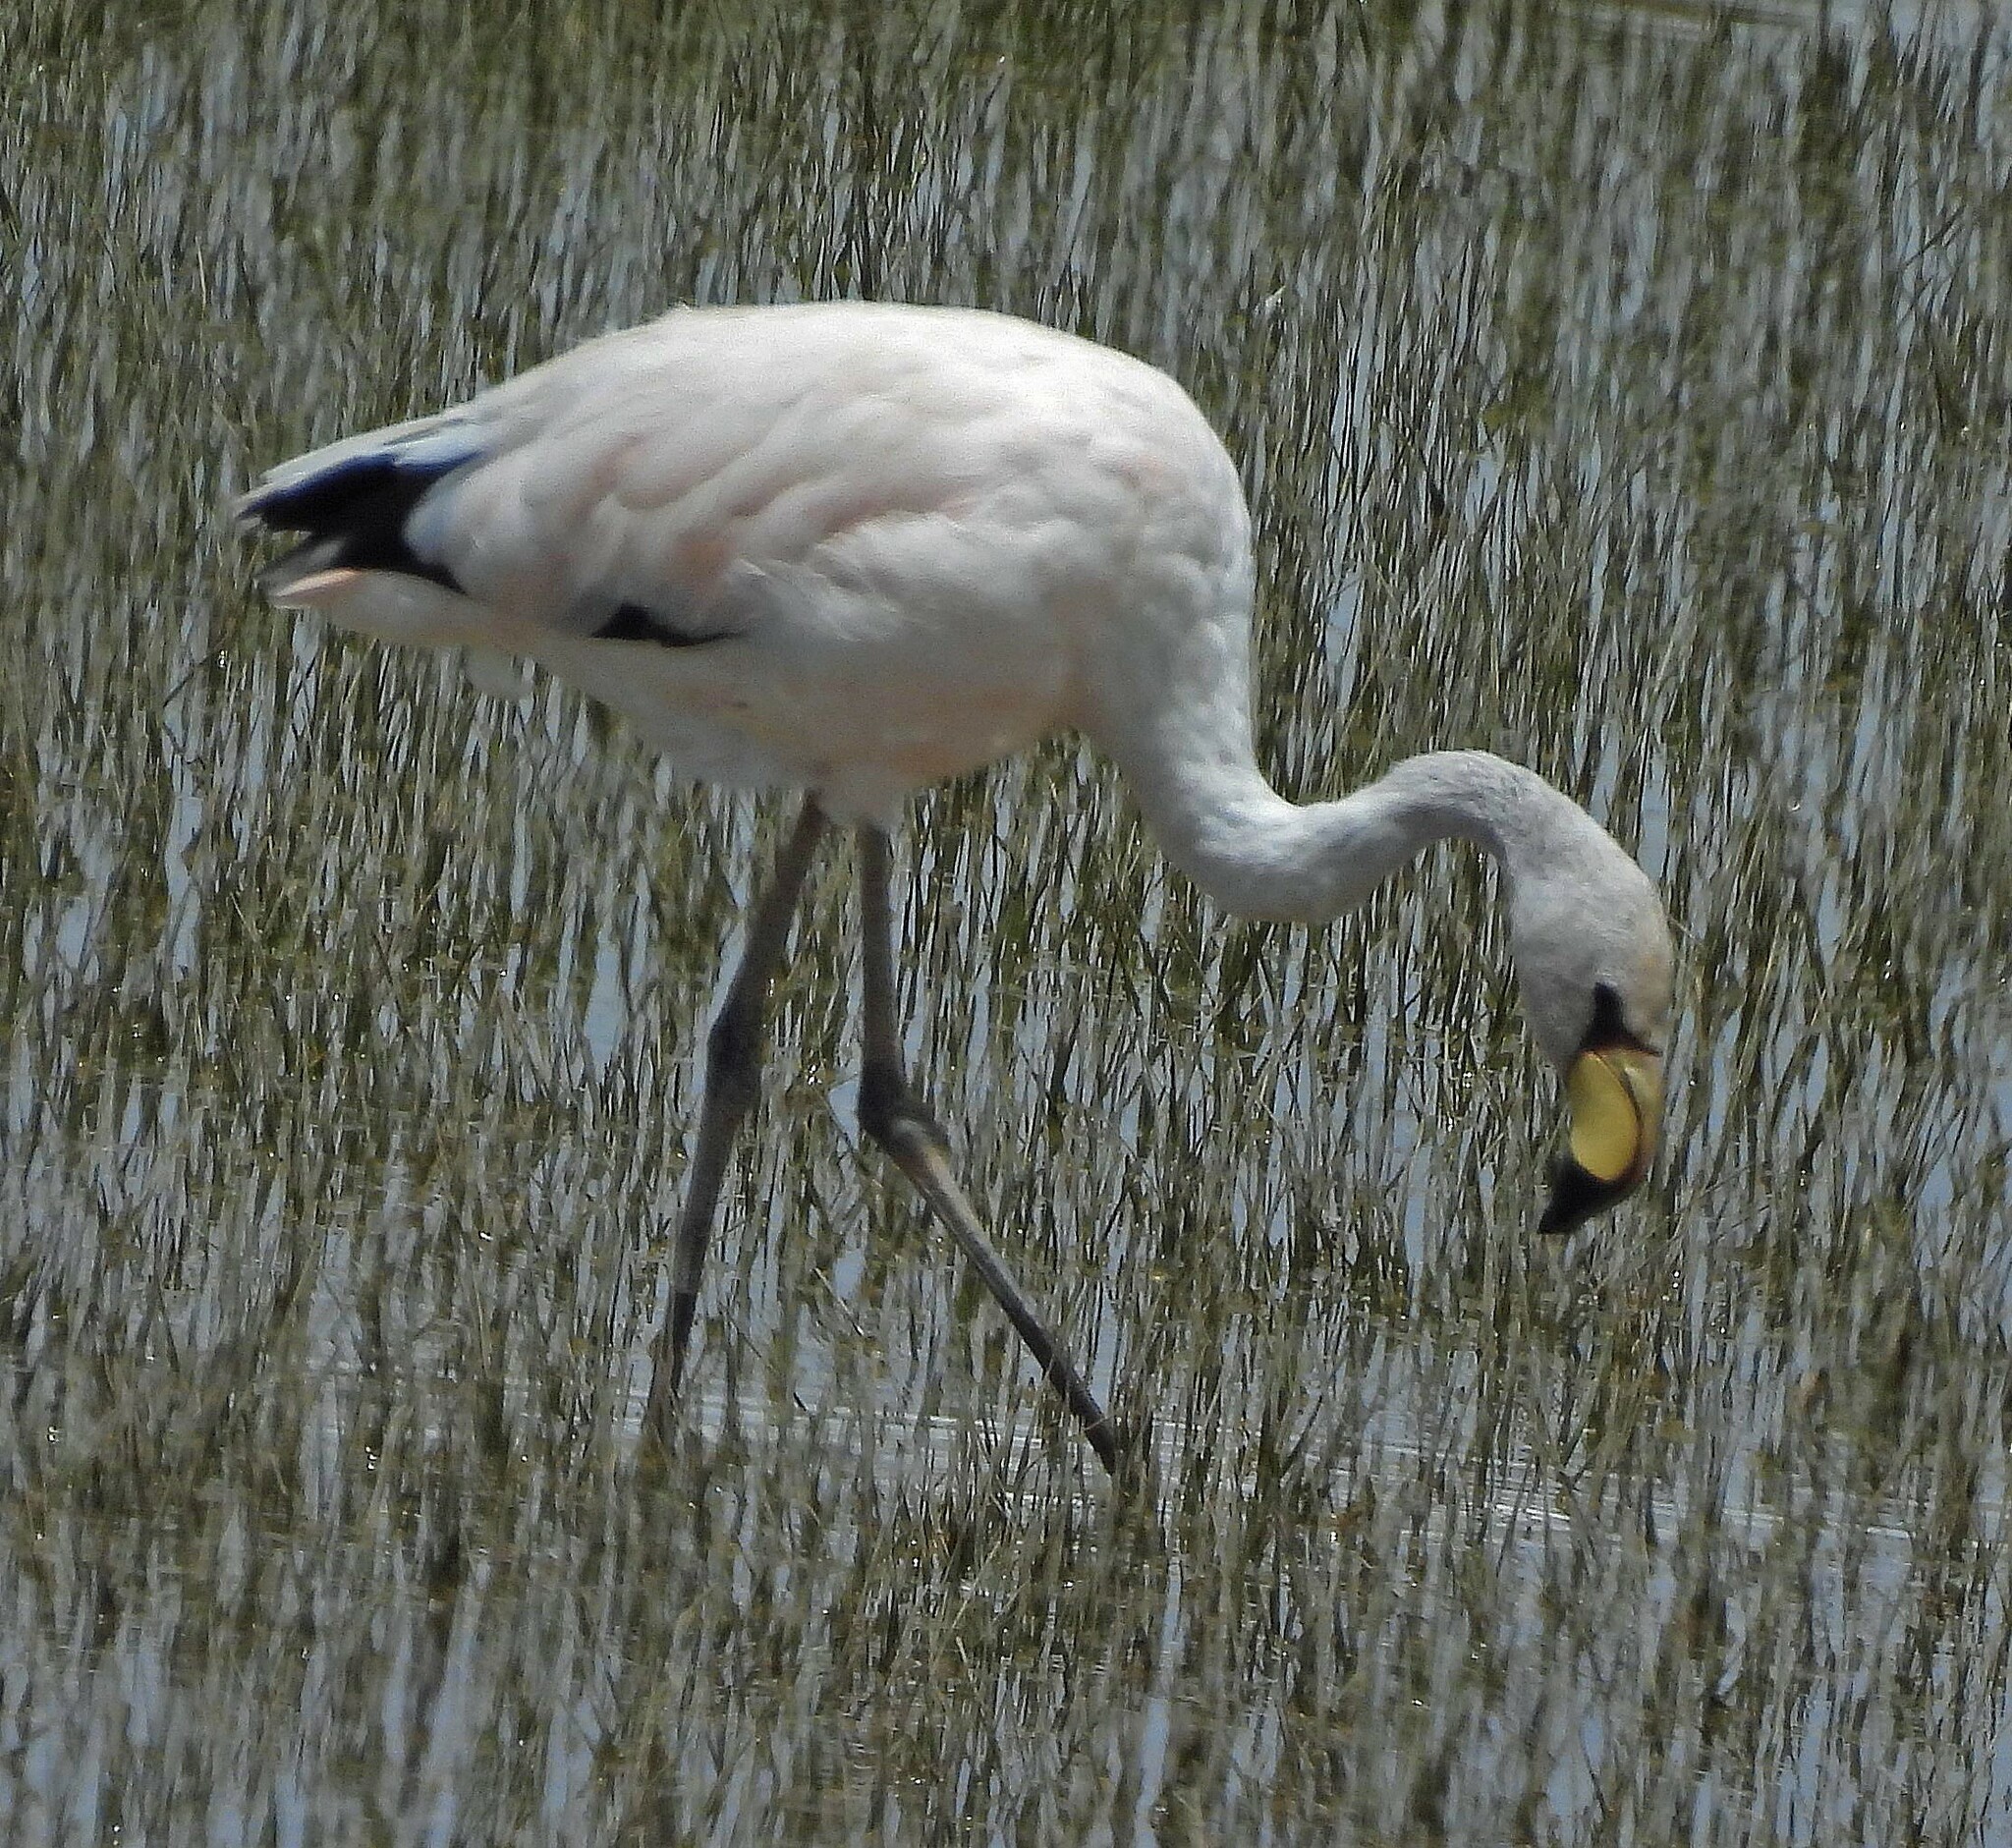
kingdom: Animalia
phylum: Chordata
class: Aves
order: Phoenicopteriformes
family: Phoenicopteridae
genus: Phoenicoparrus
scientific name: Phoenicoparrus jamesi
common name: James's flamingo
